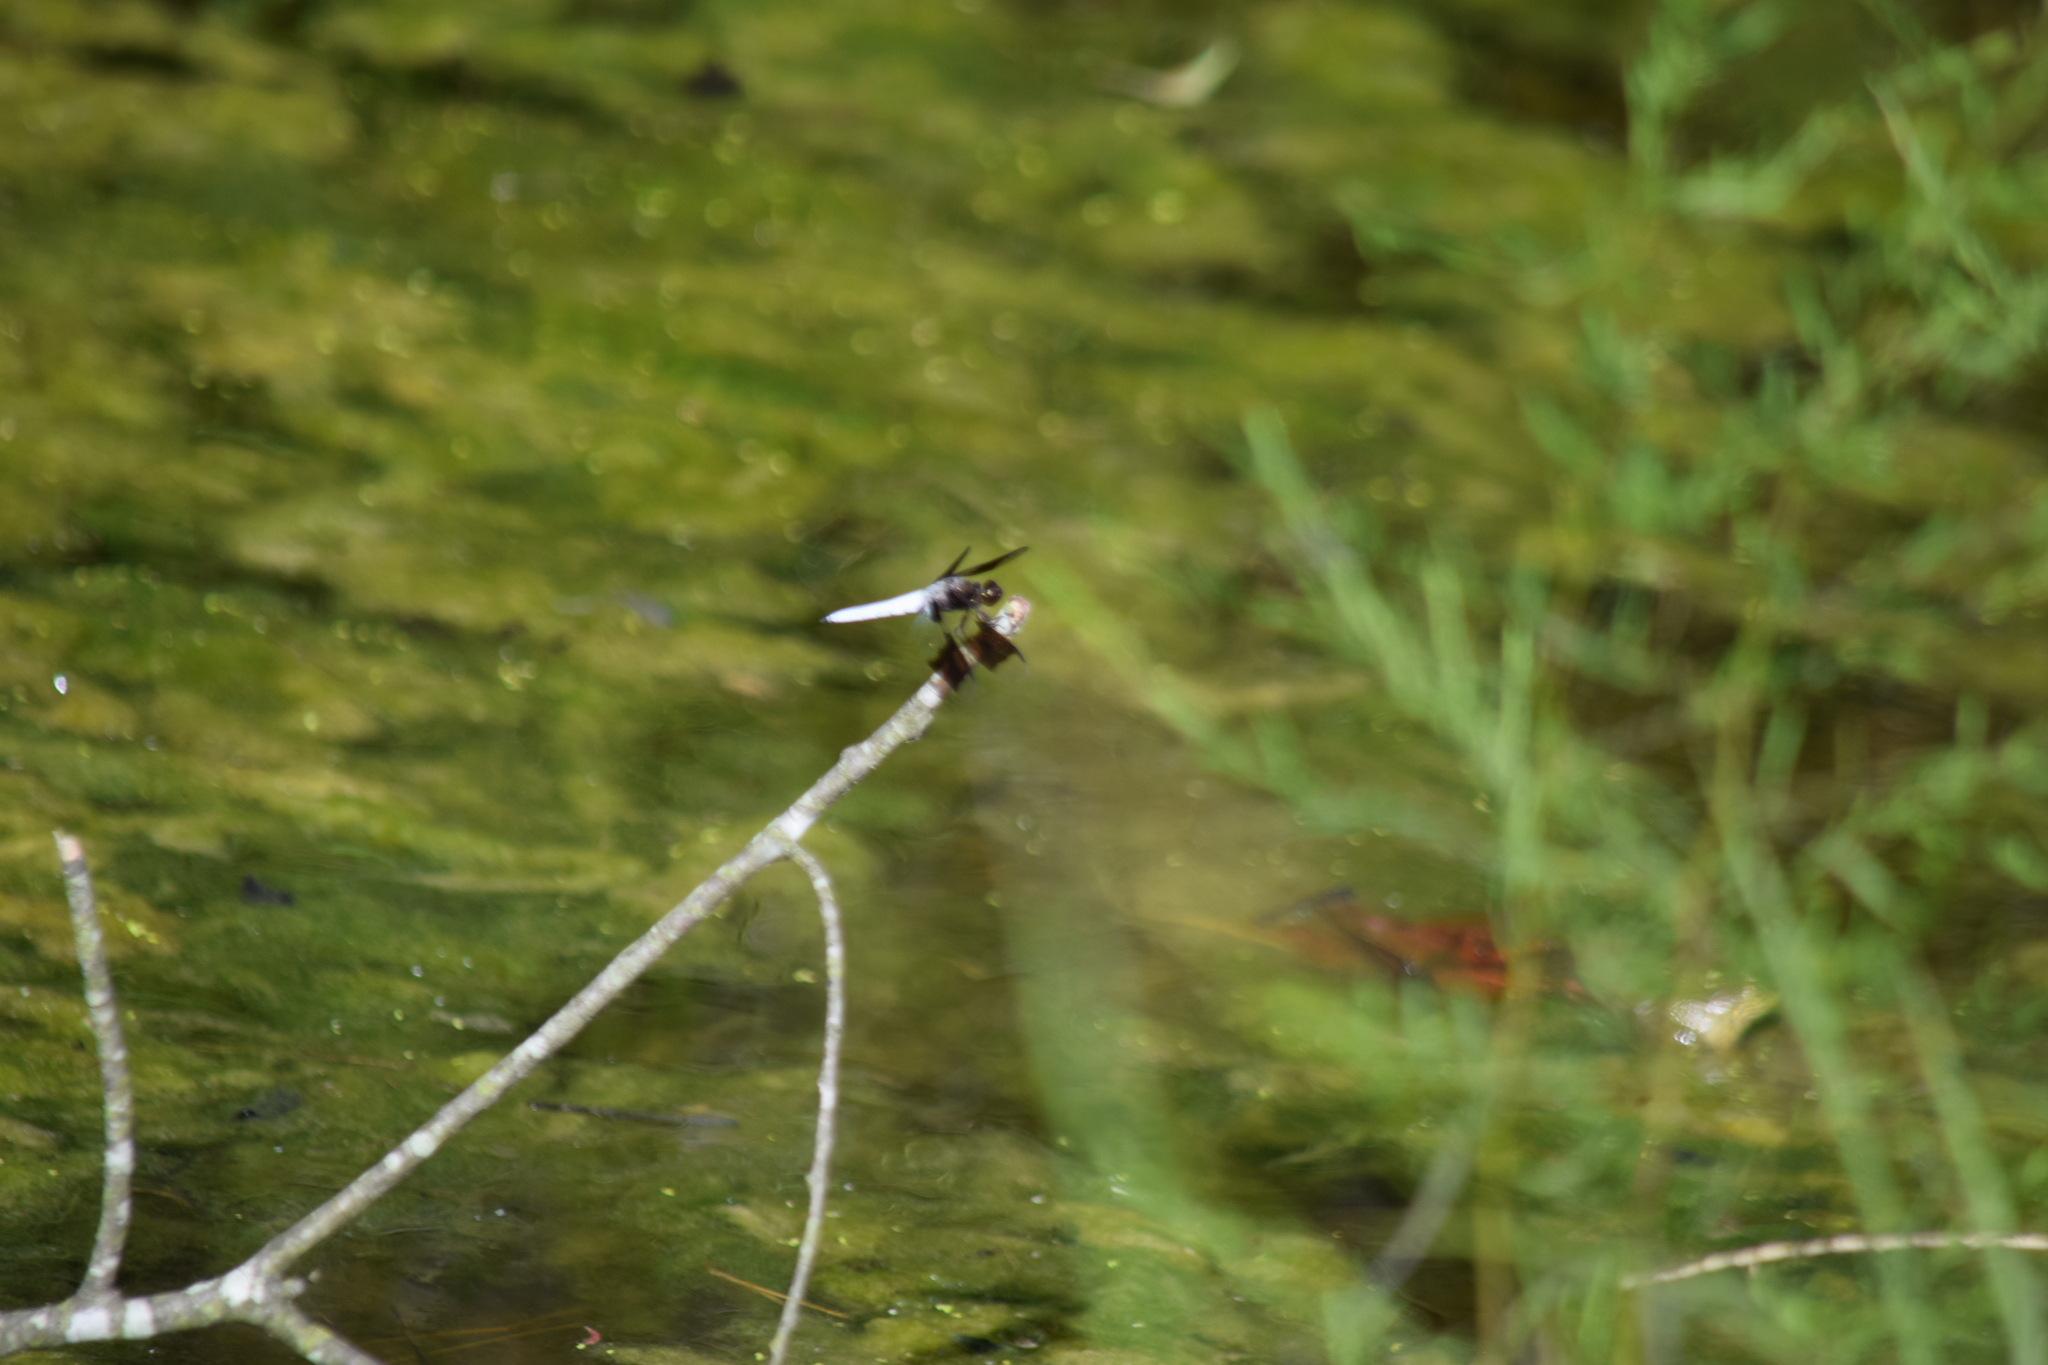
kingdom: Animalia
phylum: Arthropoda
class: Insecta
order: Odonata
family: Libellulidae
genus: Plathemis
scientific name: Plathemis lydia
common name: Common whitetail
